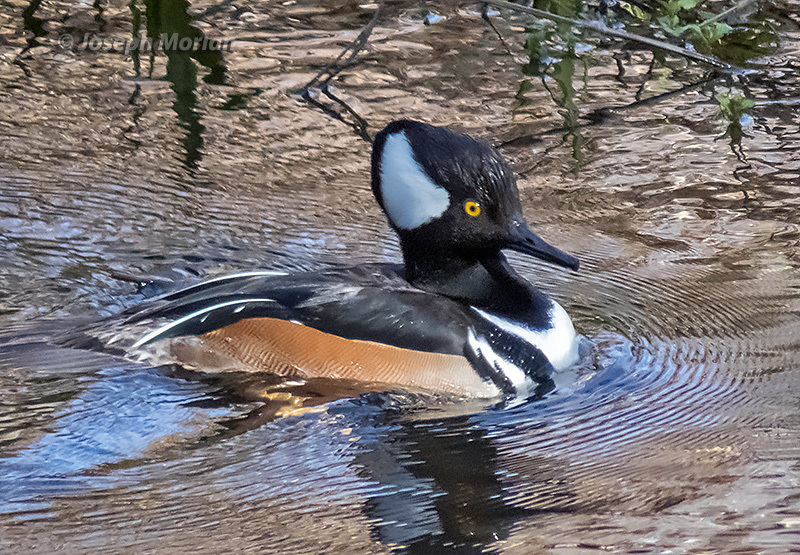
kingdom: Animalia
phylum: Chordata
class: Aves
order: Anseriformes
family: Anatidae
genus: Lophodytes
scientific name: Lophodytes cucullatus
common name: Hooded merganser
